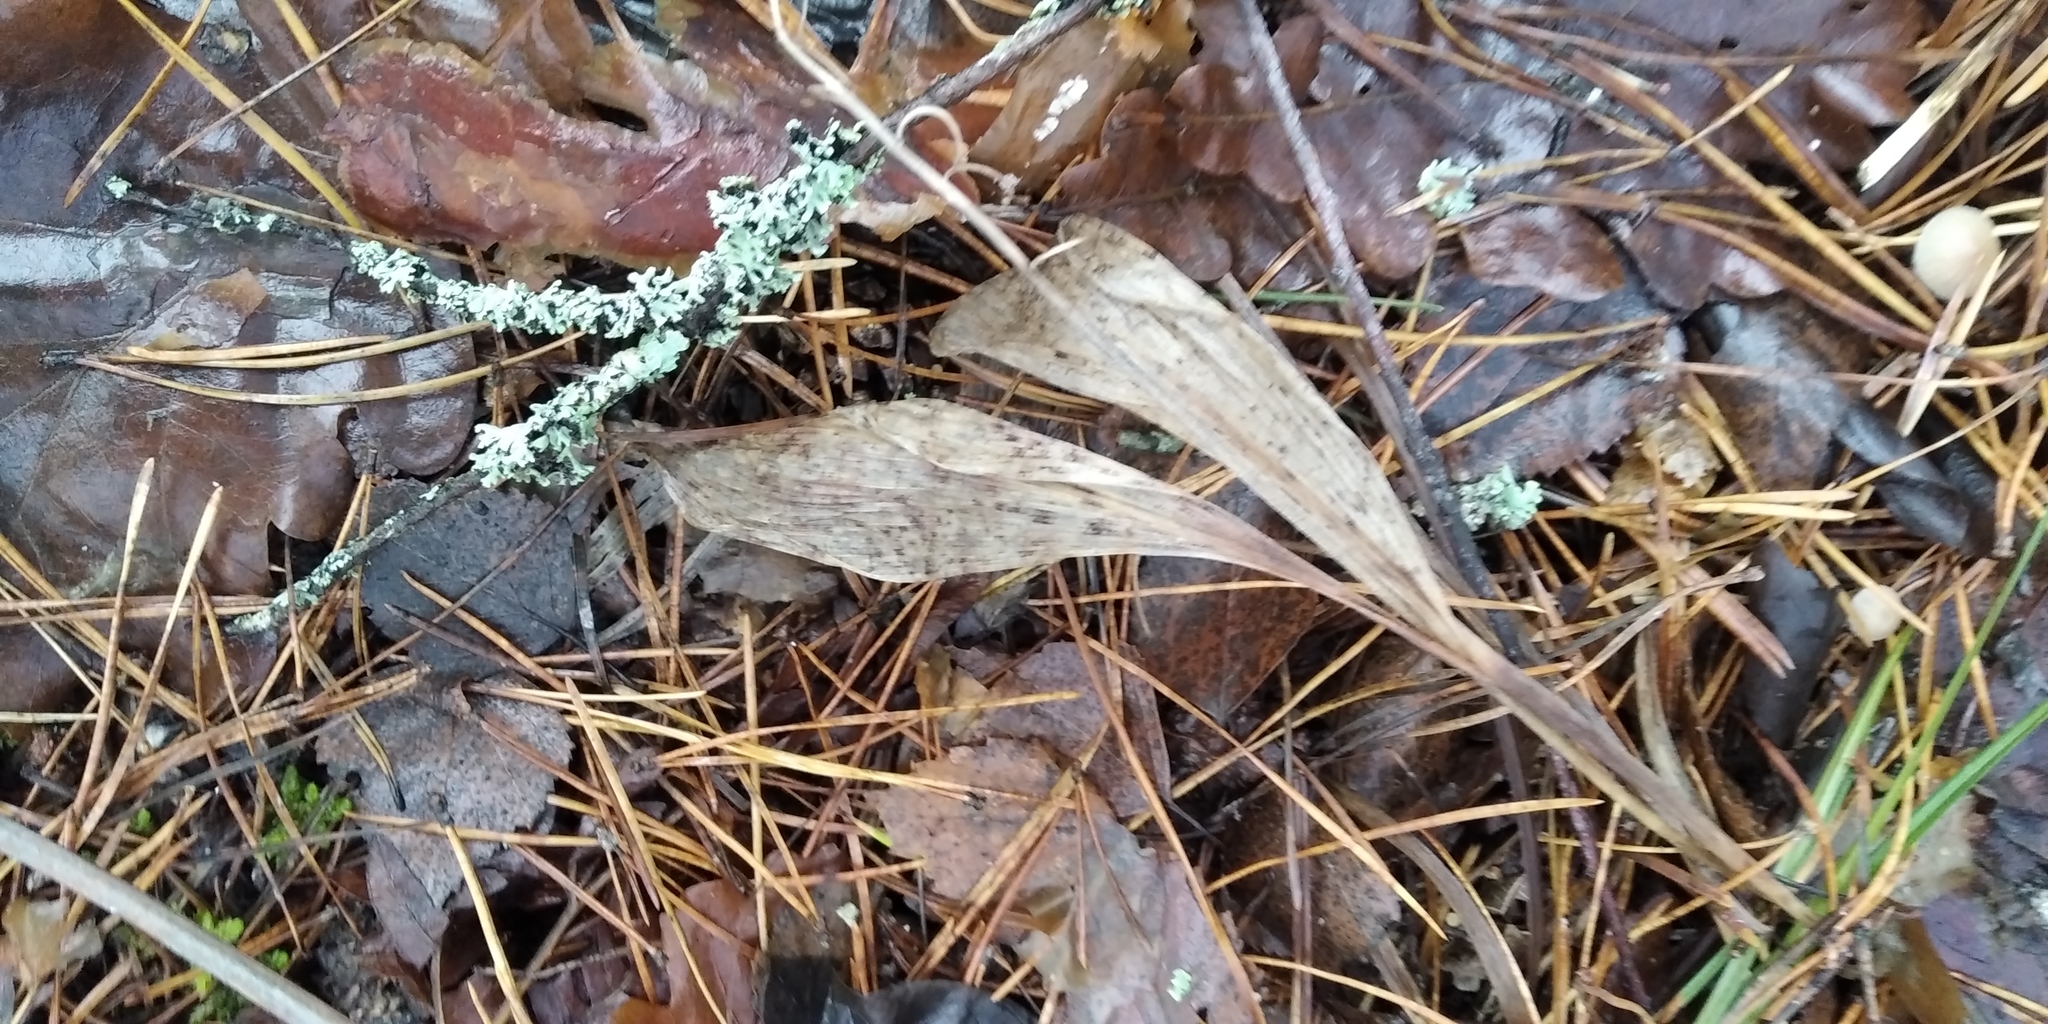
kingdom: Plantae
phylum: Tracheophyta
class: Liliopsida
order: Asparagales
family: Asparagaceae
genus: Convallaria
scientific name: Convallaria majalis
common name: Lily-of-the-valley
